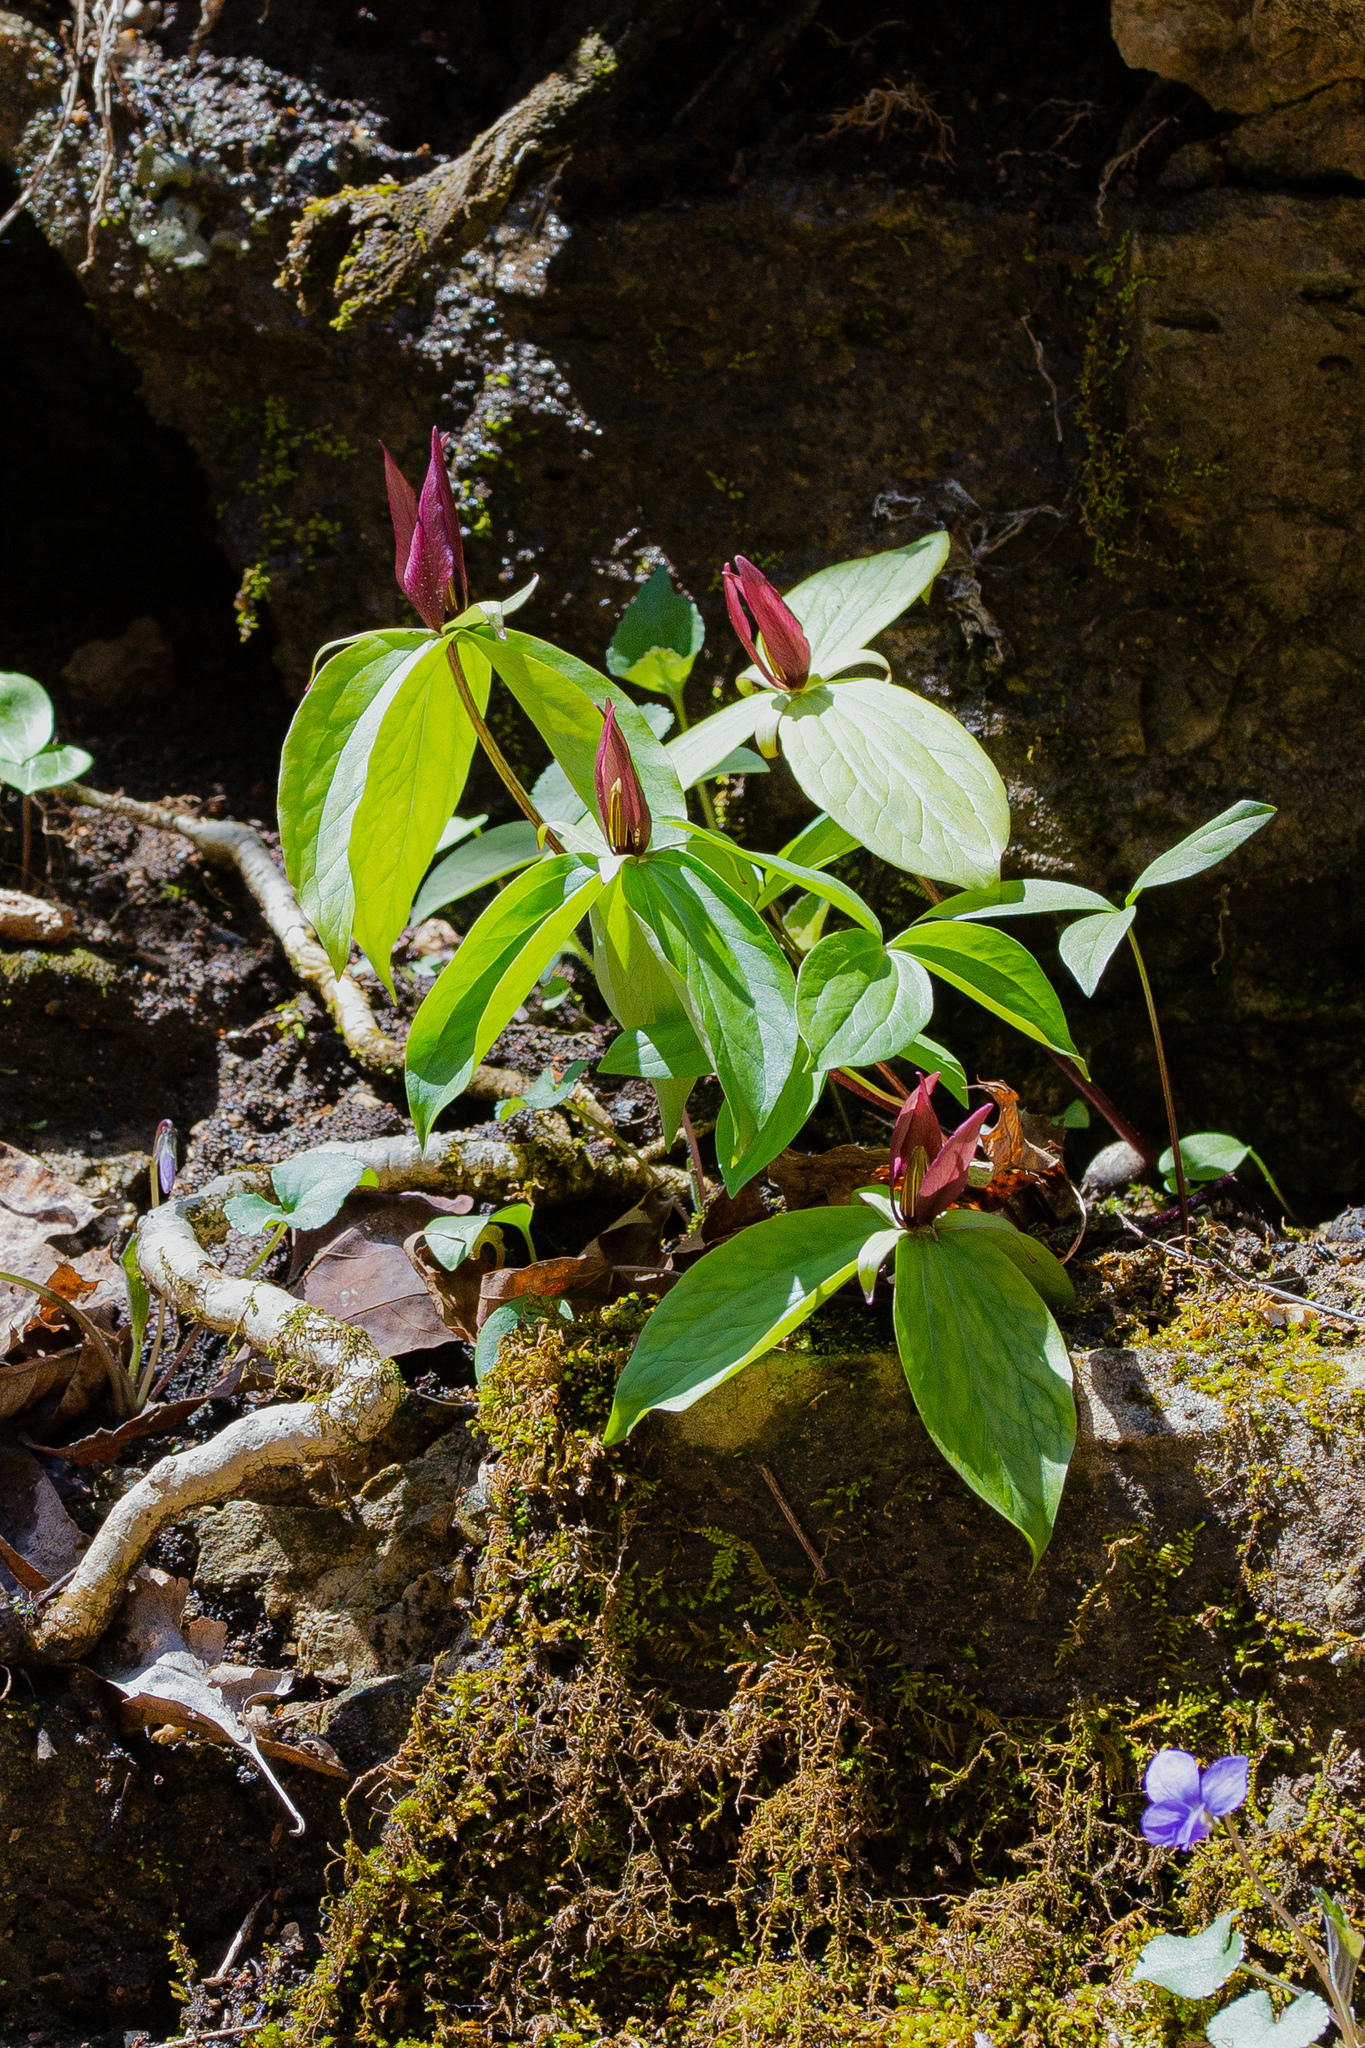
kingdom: Plantae
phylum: Tracheophyta
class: Liliopsida
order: Liliales
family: Melanthiaceae
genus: Trillium
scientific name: Trillium sessile
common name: Sessile trillium
